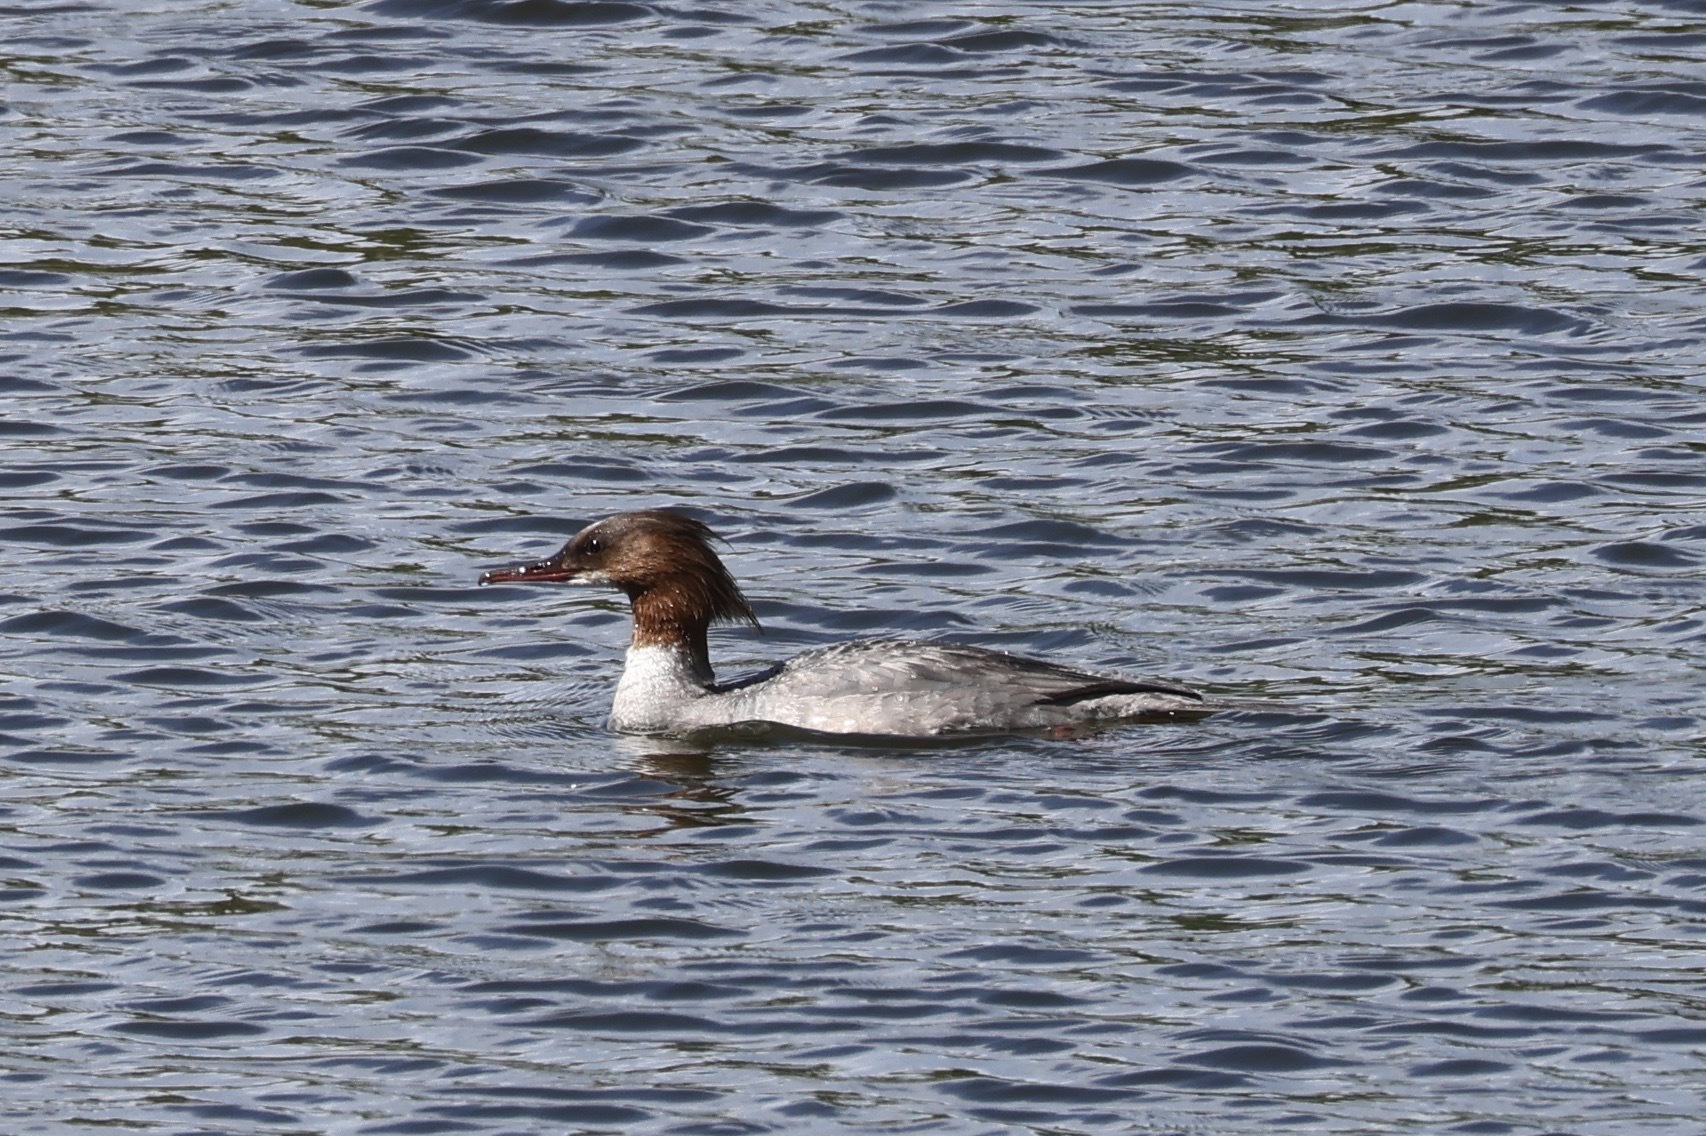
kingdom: Animalia
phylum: Chordata
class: Aves
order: Anseriformes
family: Anatidae
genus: Mergus
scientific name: Mergus merganser
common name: Common merganser
